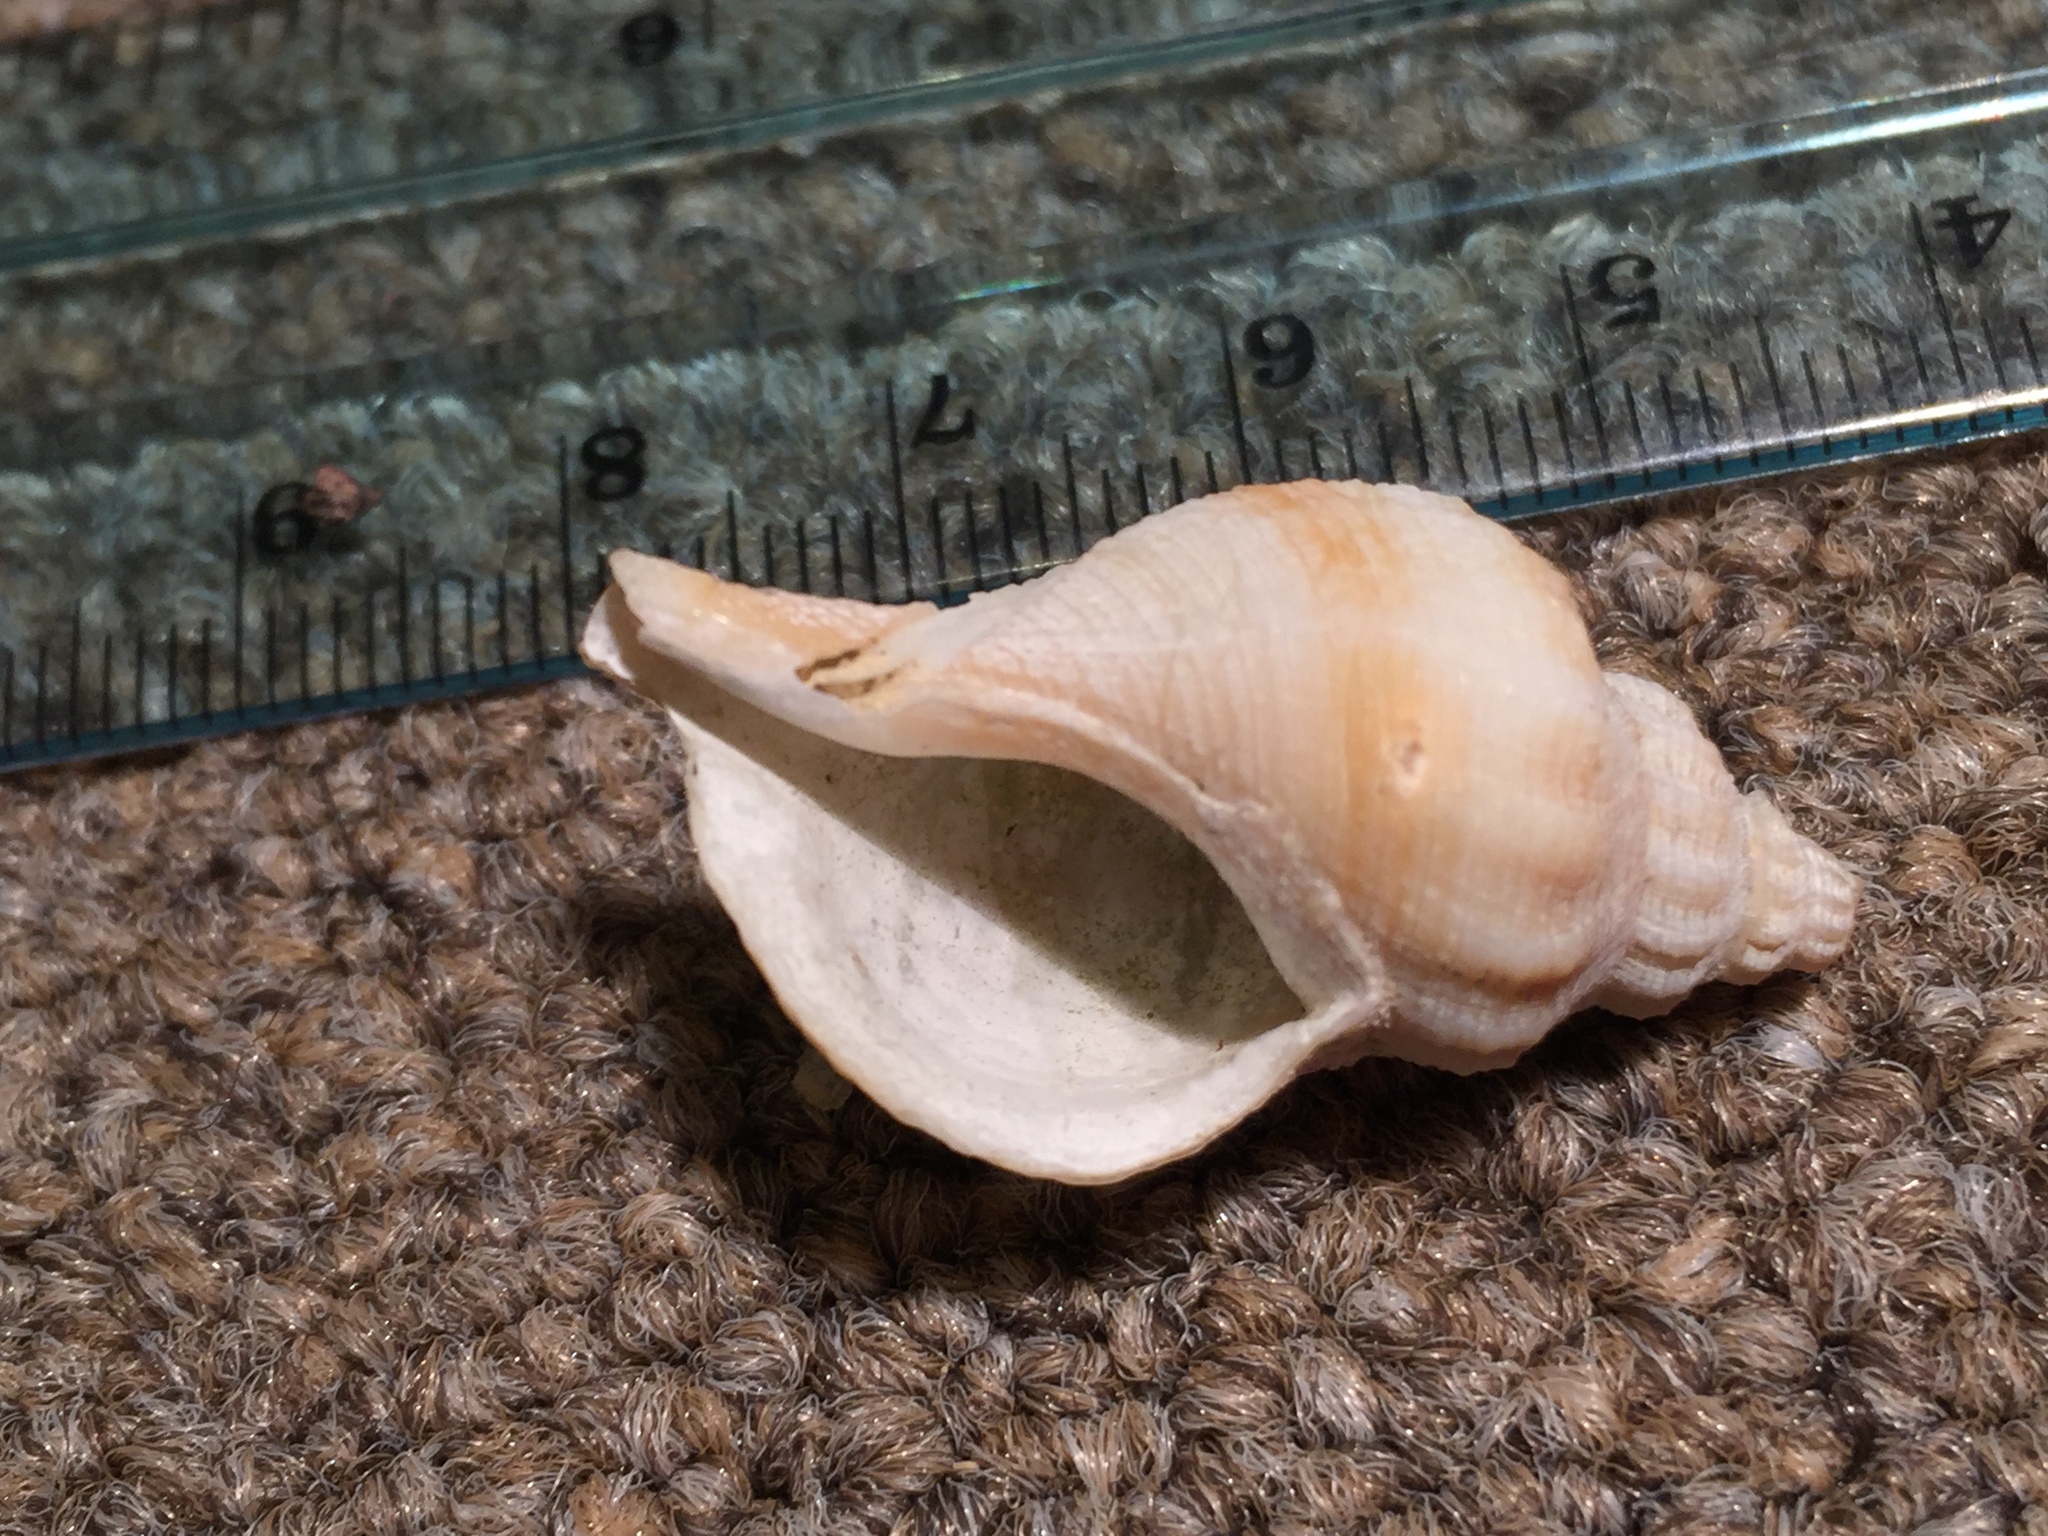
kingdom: Animalia
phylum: Mollusca
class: Gastropoda
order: Neogastropoda
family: Tudiclidae
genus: Aeneator
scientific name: Aeneator marshalli
